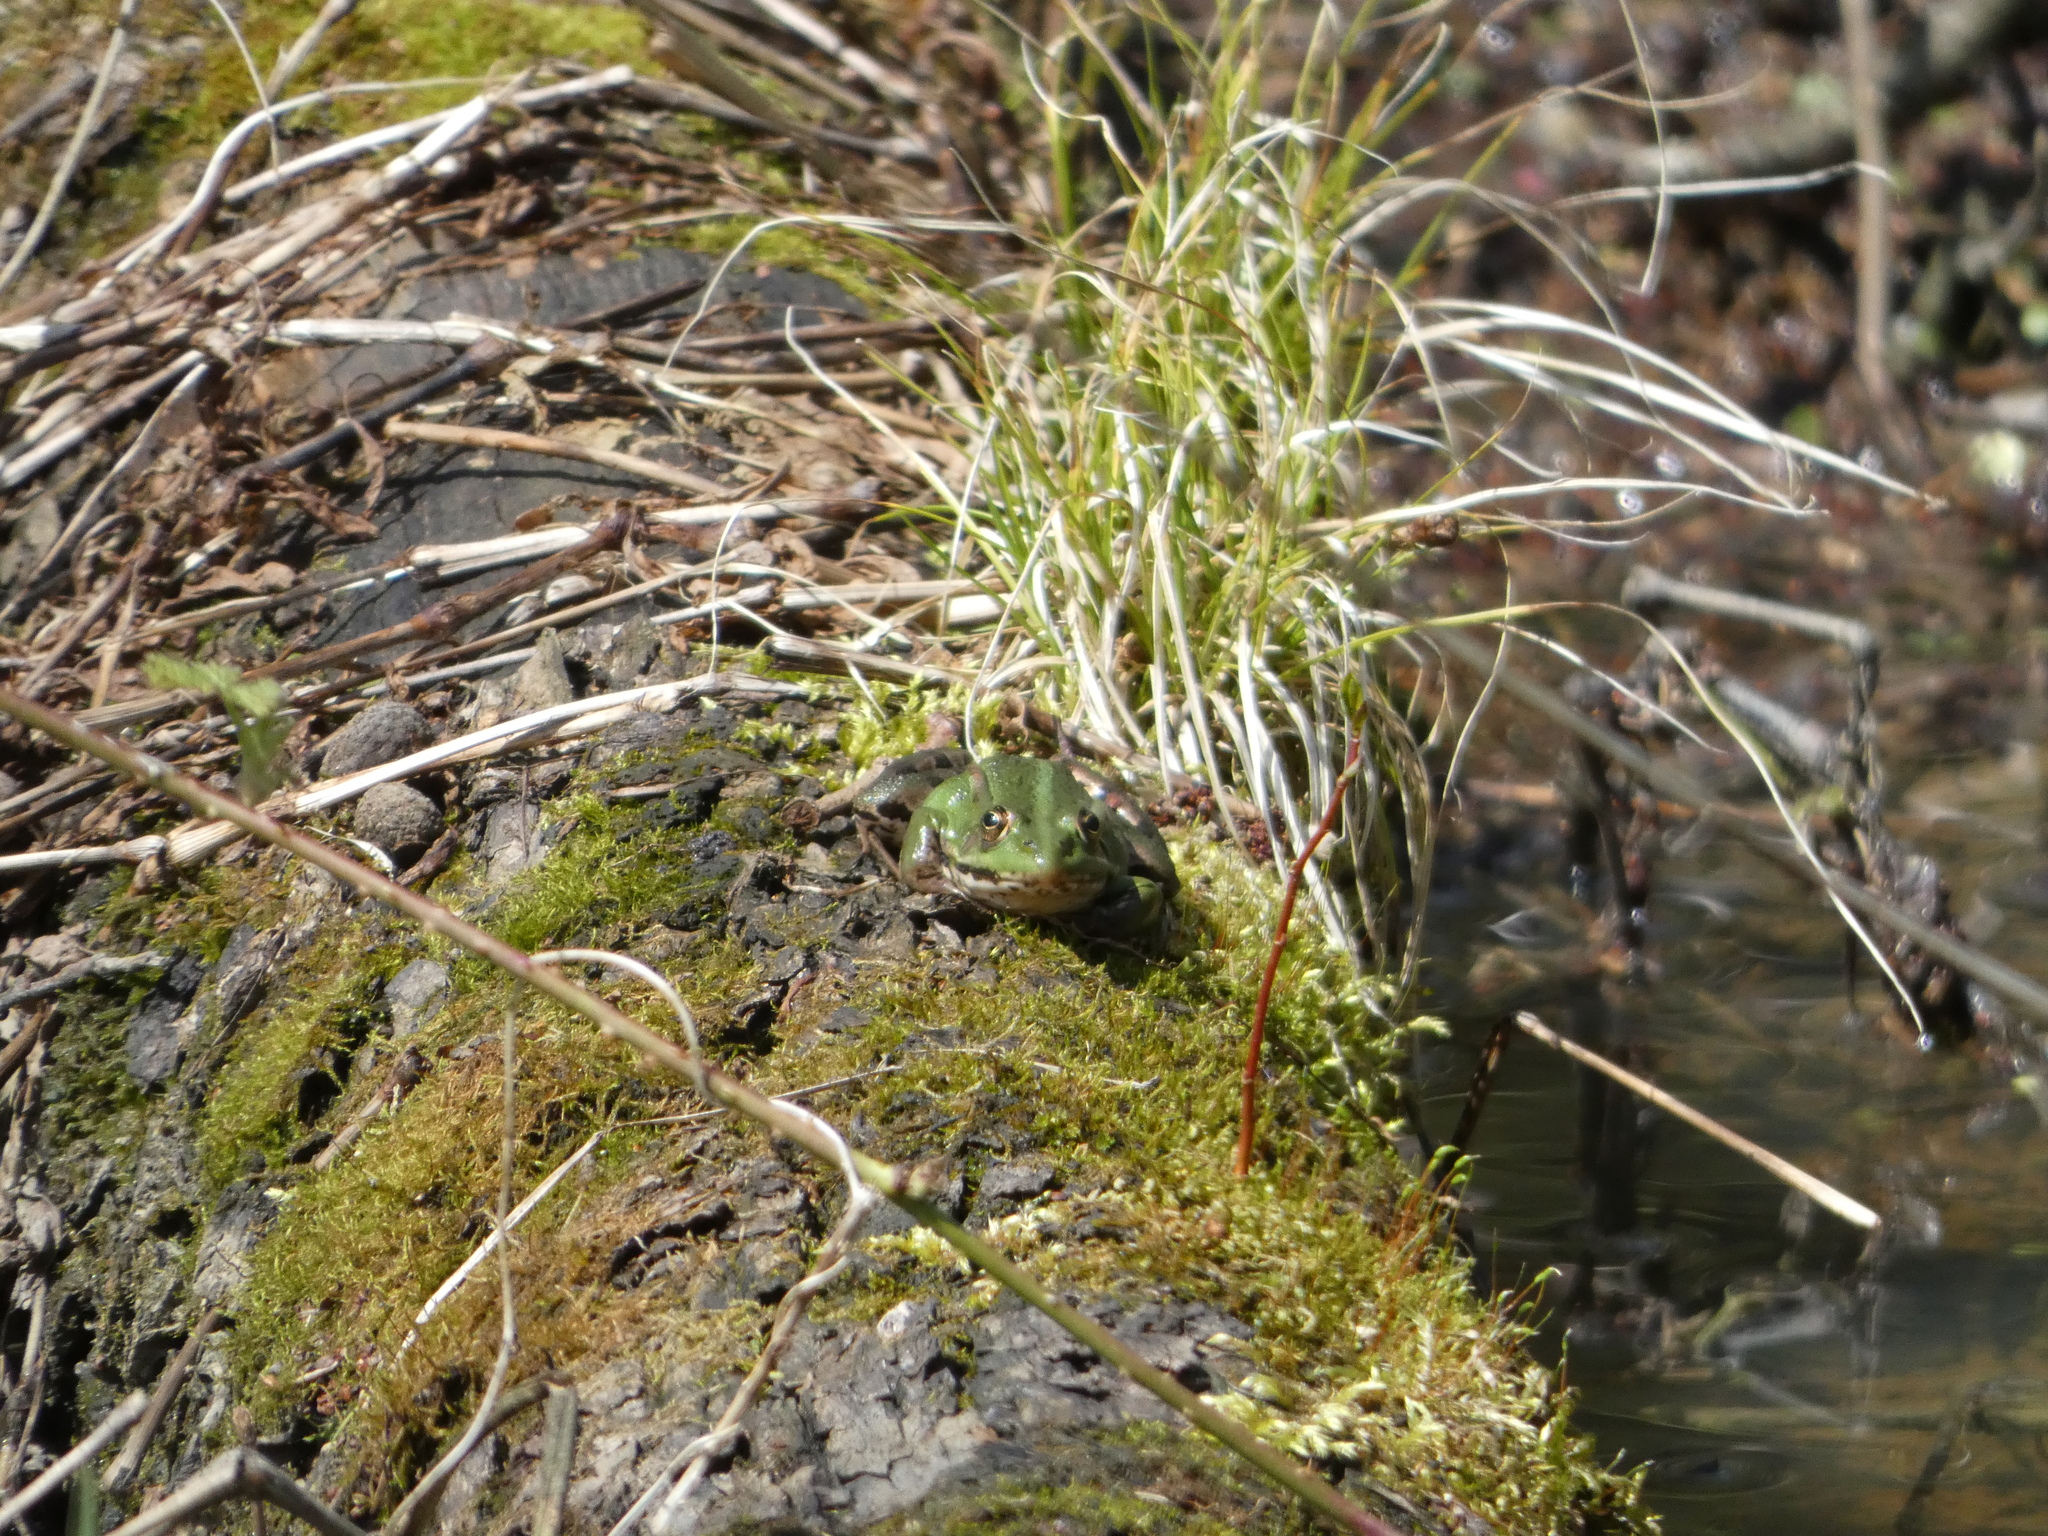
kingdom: Animalia
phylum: Chordata
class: Amphibia
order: Anura
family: Ranidae
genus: Pelophylax
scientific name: Pelophylax
